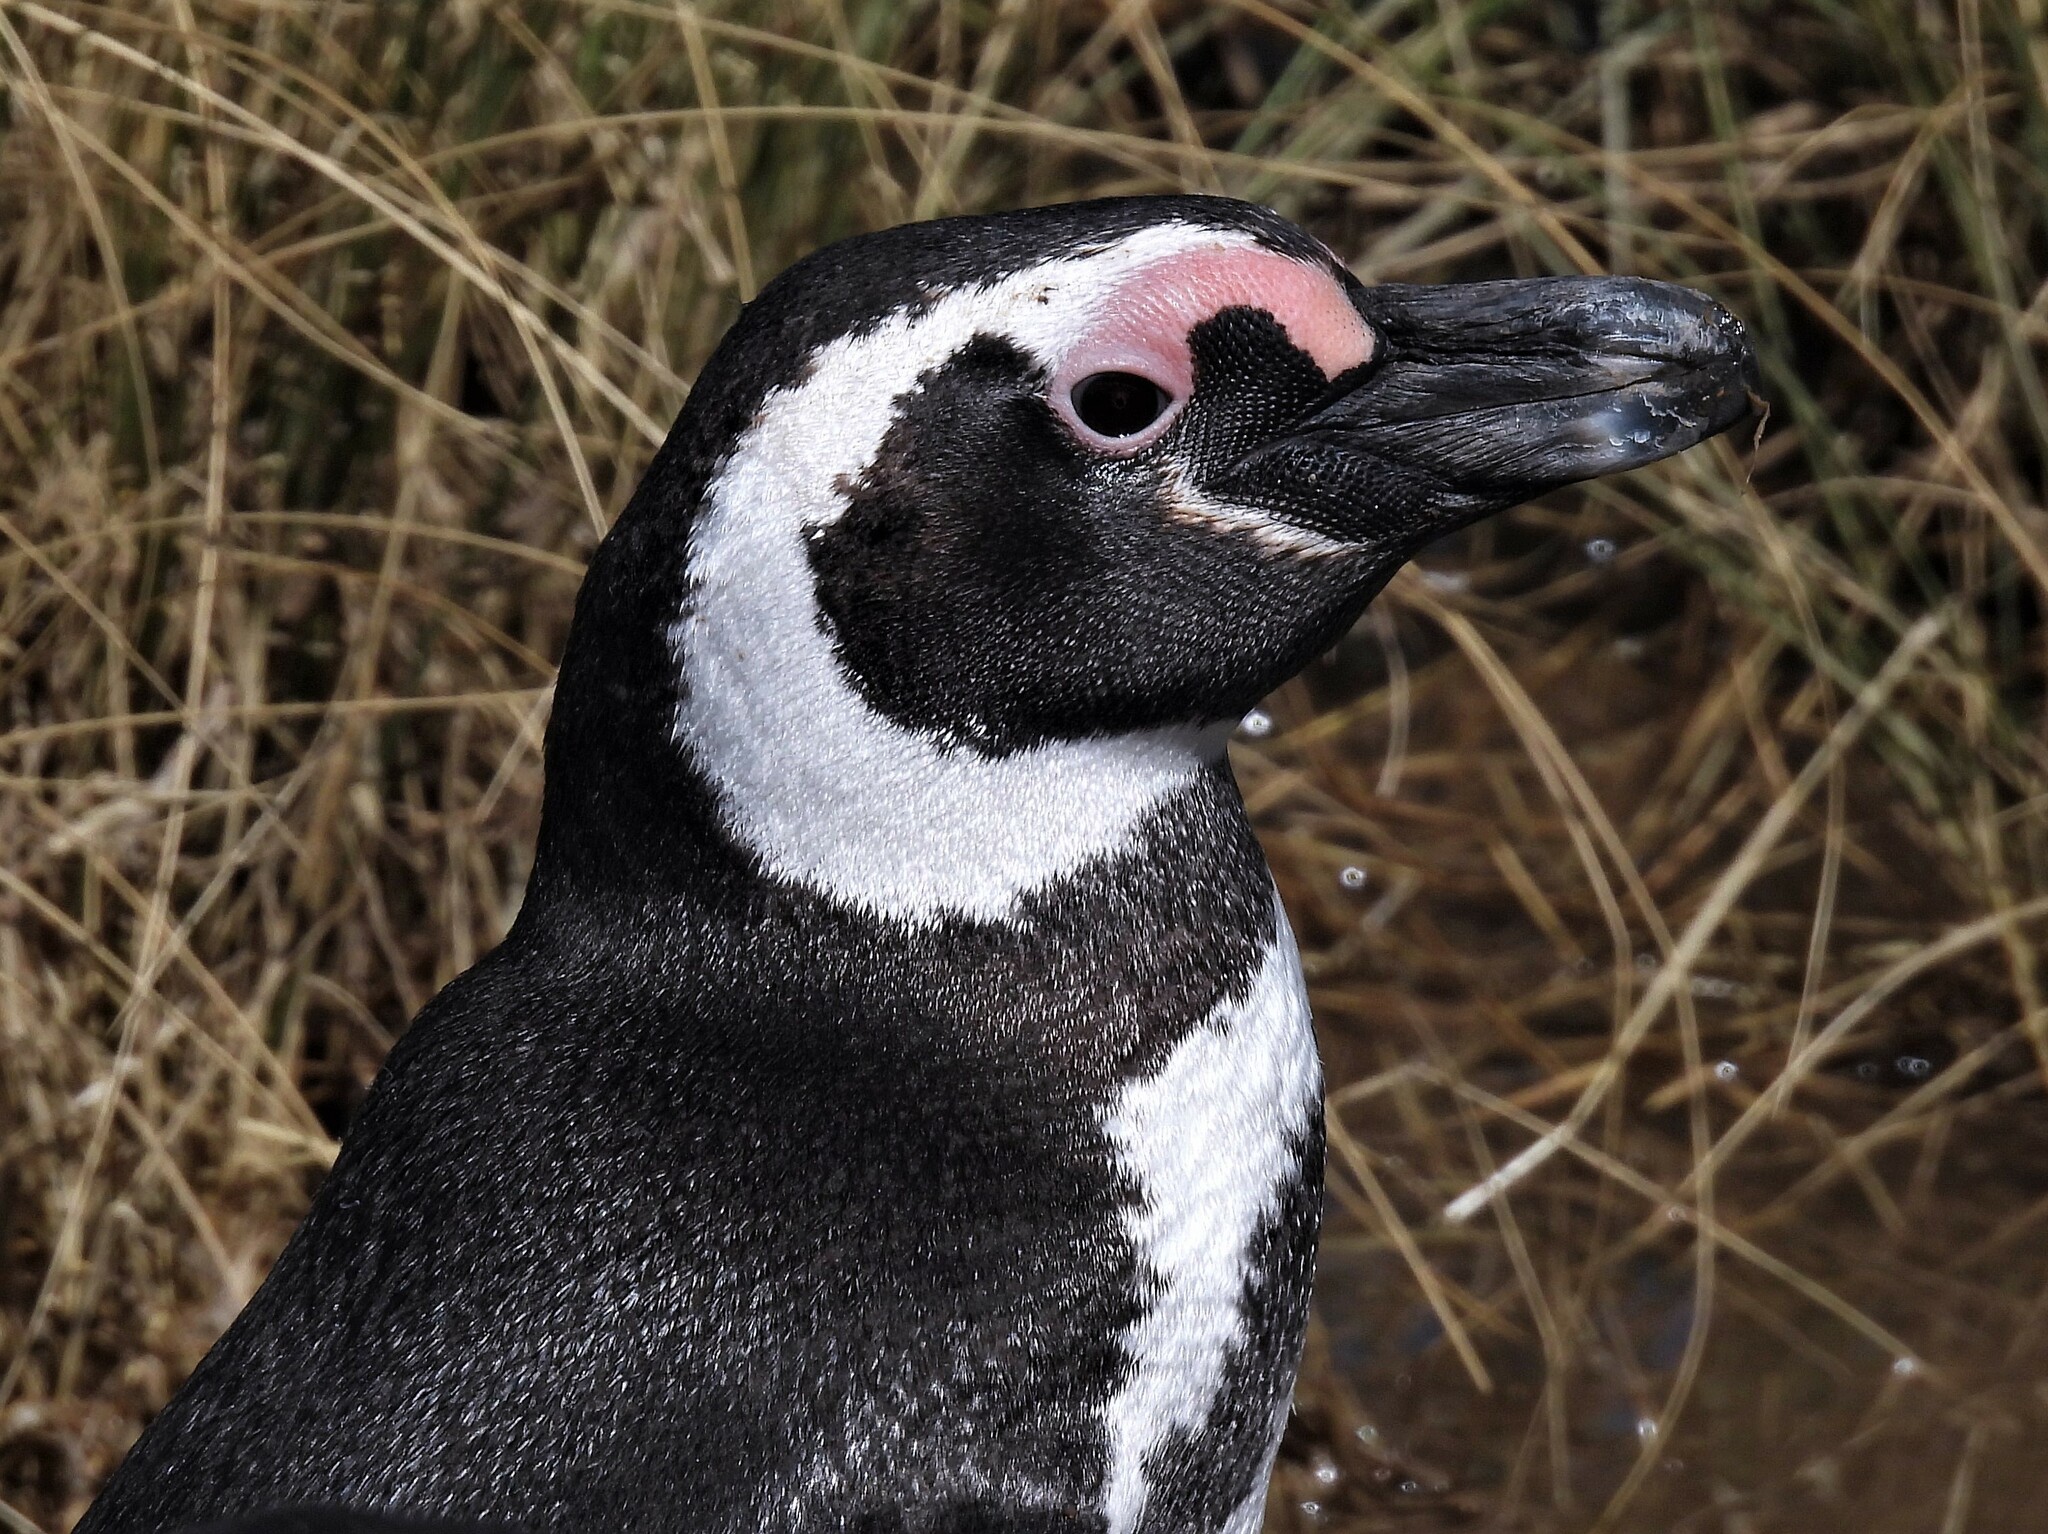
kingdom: Animalia
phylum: Chordata
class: Aves
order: Sphenisciformes
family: Spheniscidae
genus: Spheniscus
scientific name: Spheniscus magellanicus
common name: Magellanic penguin
